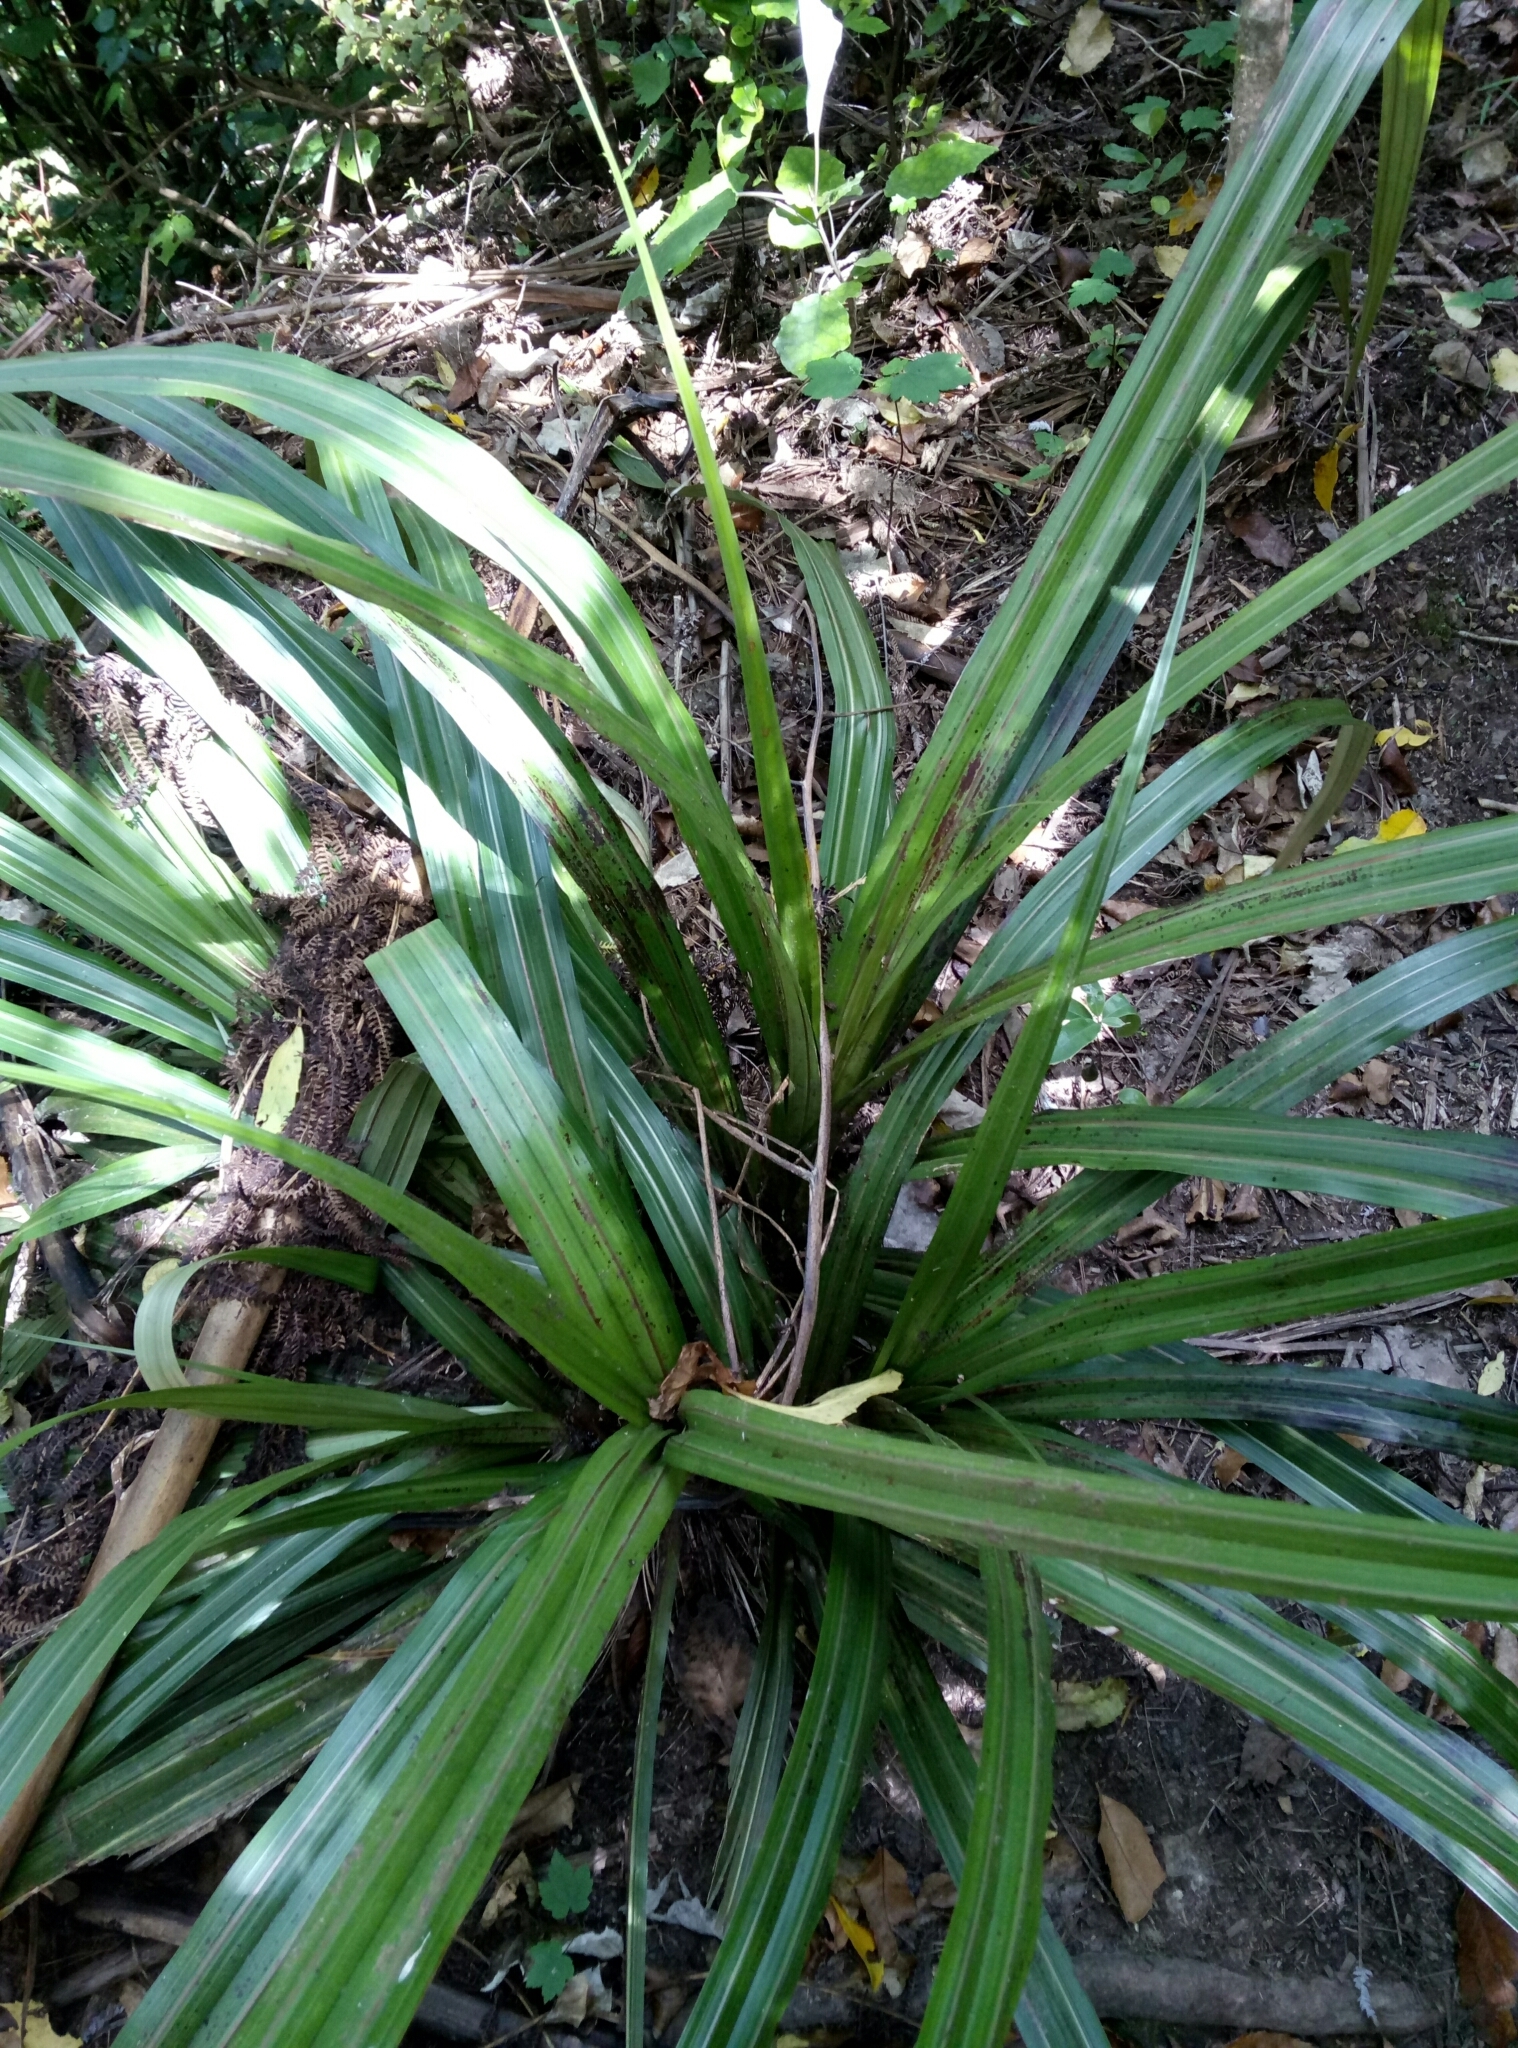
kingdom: Plantae
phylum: Tracheophyta
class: Liliopsida
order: Asparagales
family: Asteliaceae
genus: Astelia
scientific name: Astelia fragrans
